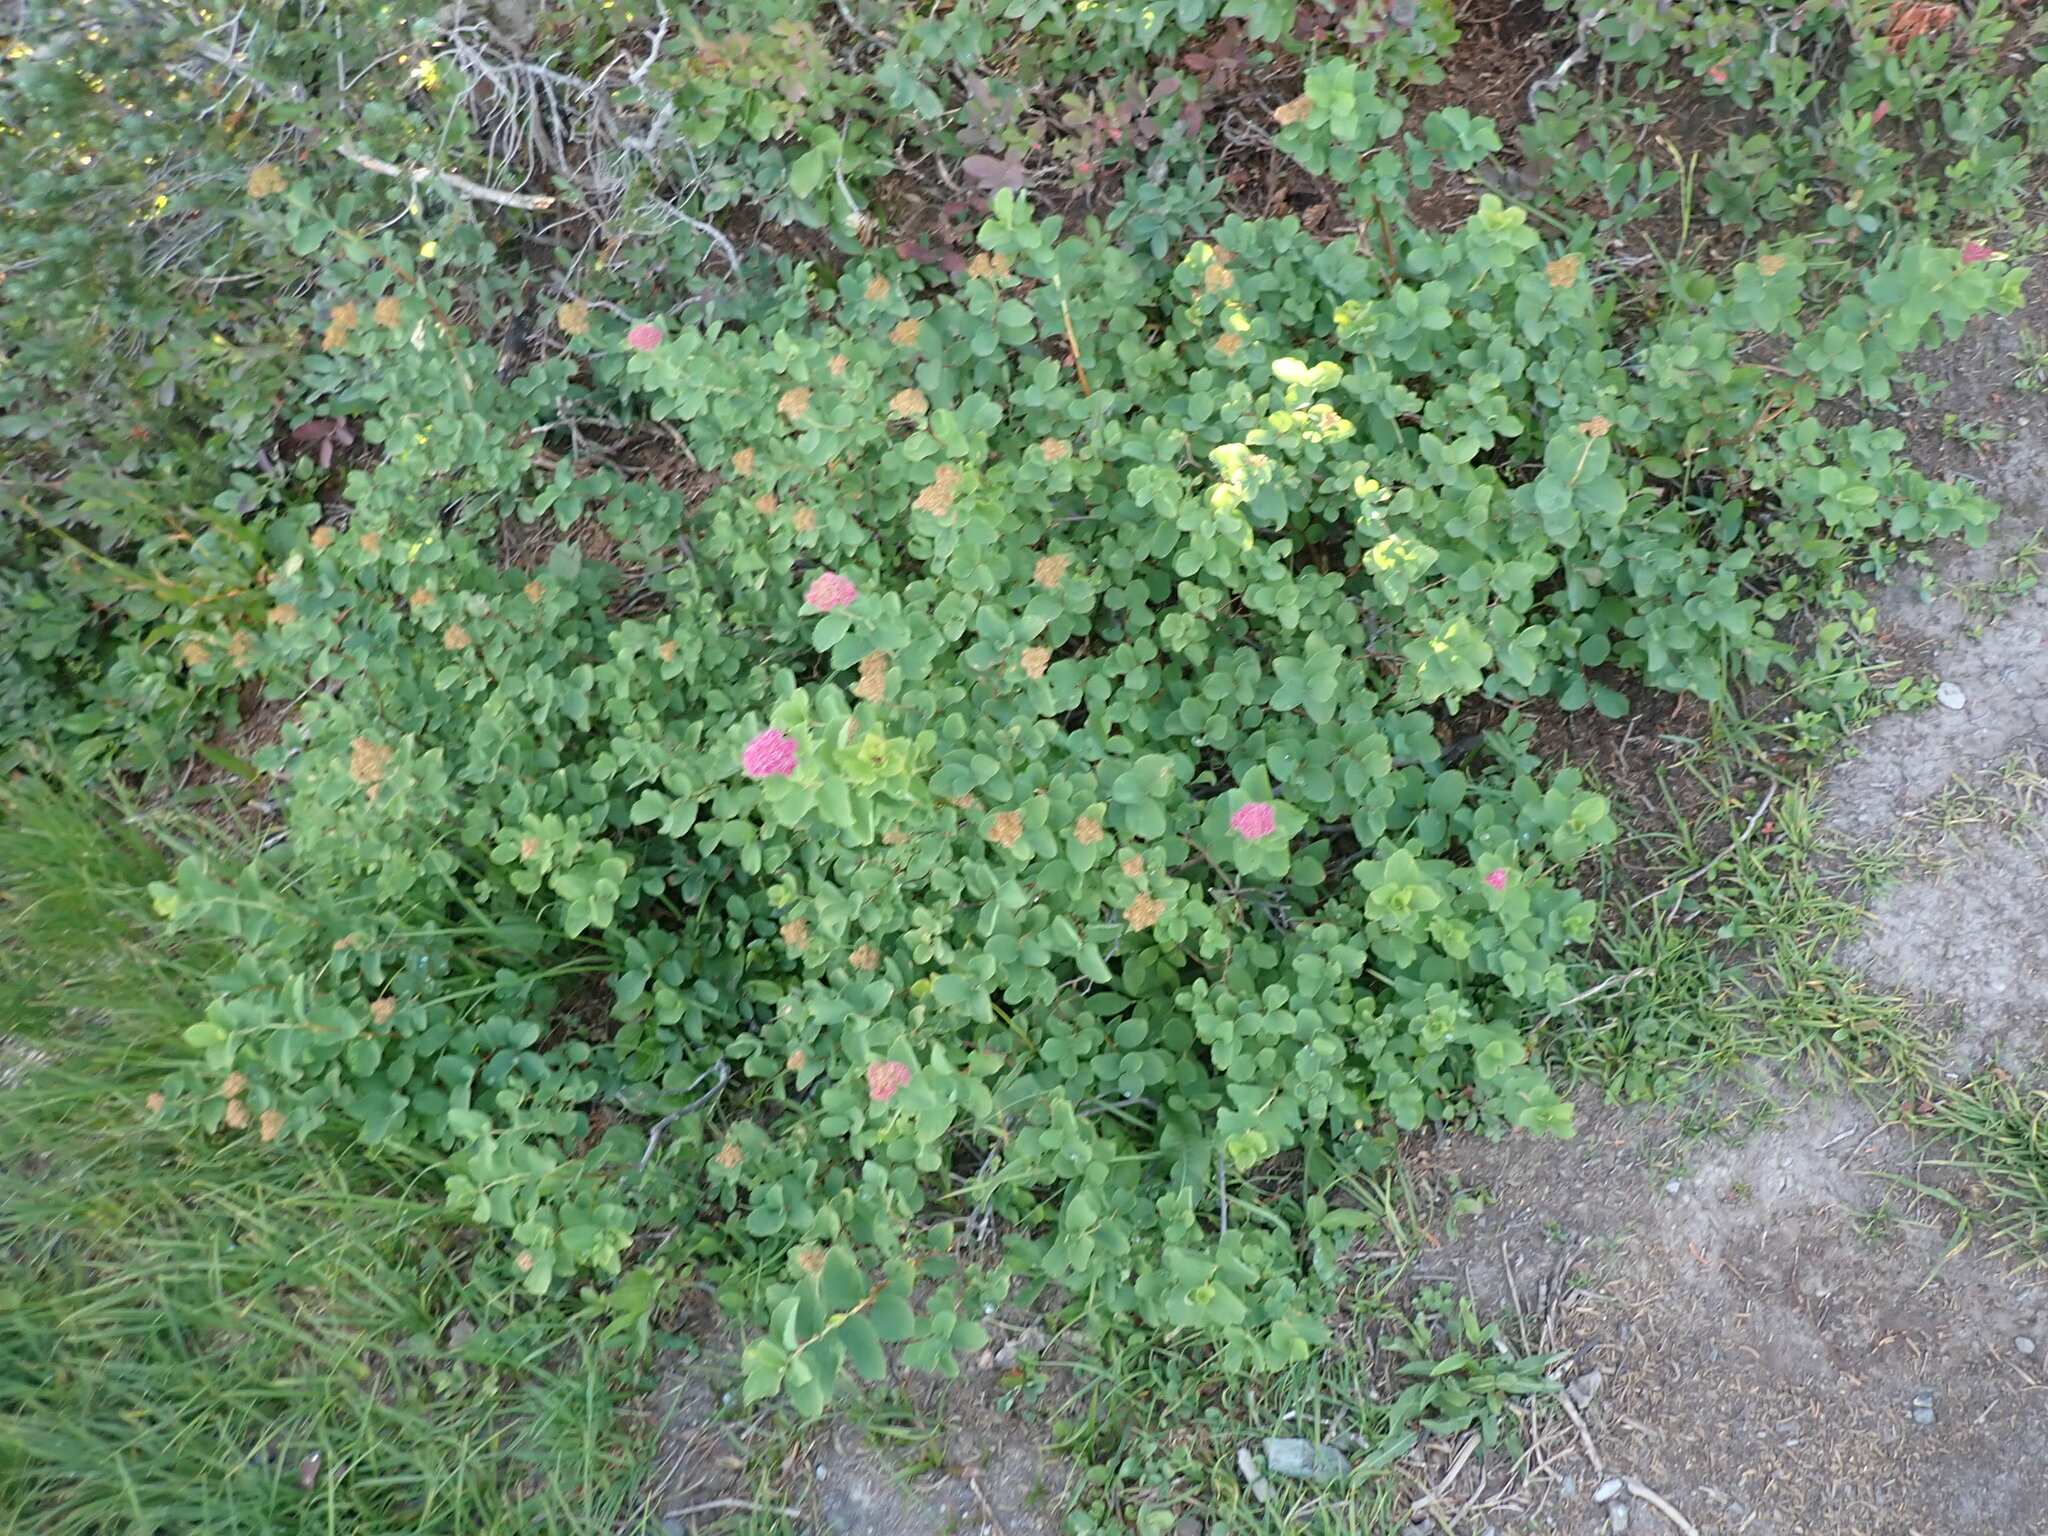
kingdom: Plantae
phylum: Tracheophyta
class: Magnoliopsida
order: Rosales
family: Rosaceae
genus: Spiraea
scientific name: Spiraea splendens
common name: Subalpine meadowsweet
